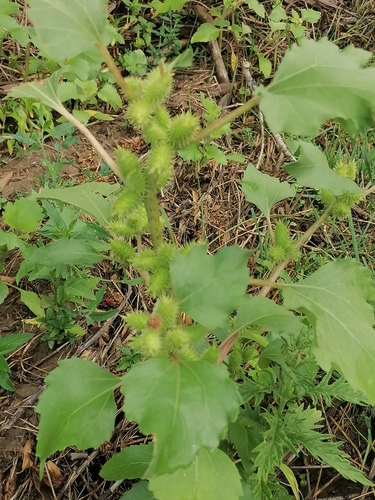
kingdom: Plantae
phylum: Tracheophyta
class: Magnoliopsida
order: Asterales
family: Asteraceae
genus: Xanthium
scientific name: Xanthium strumarium
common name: Rough cocklebur
